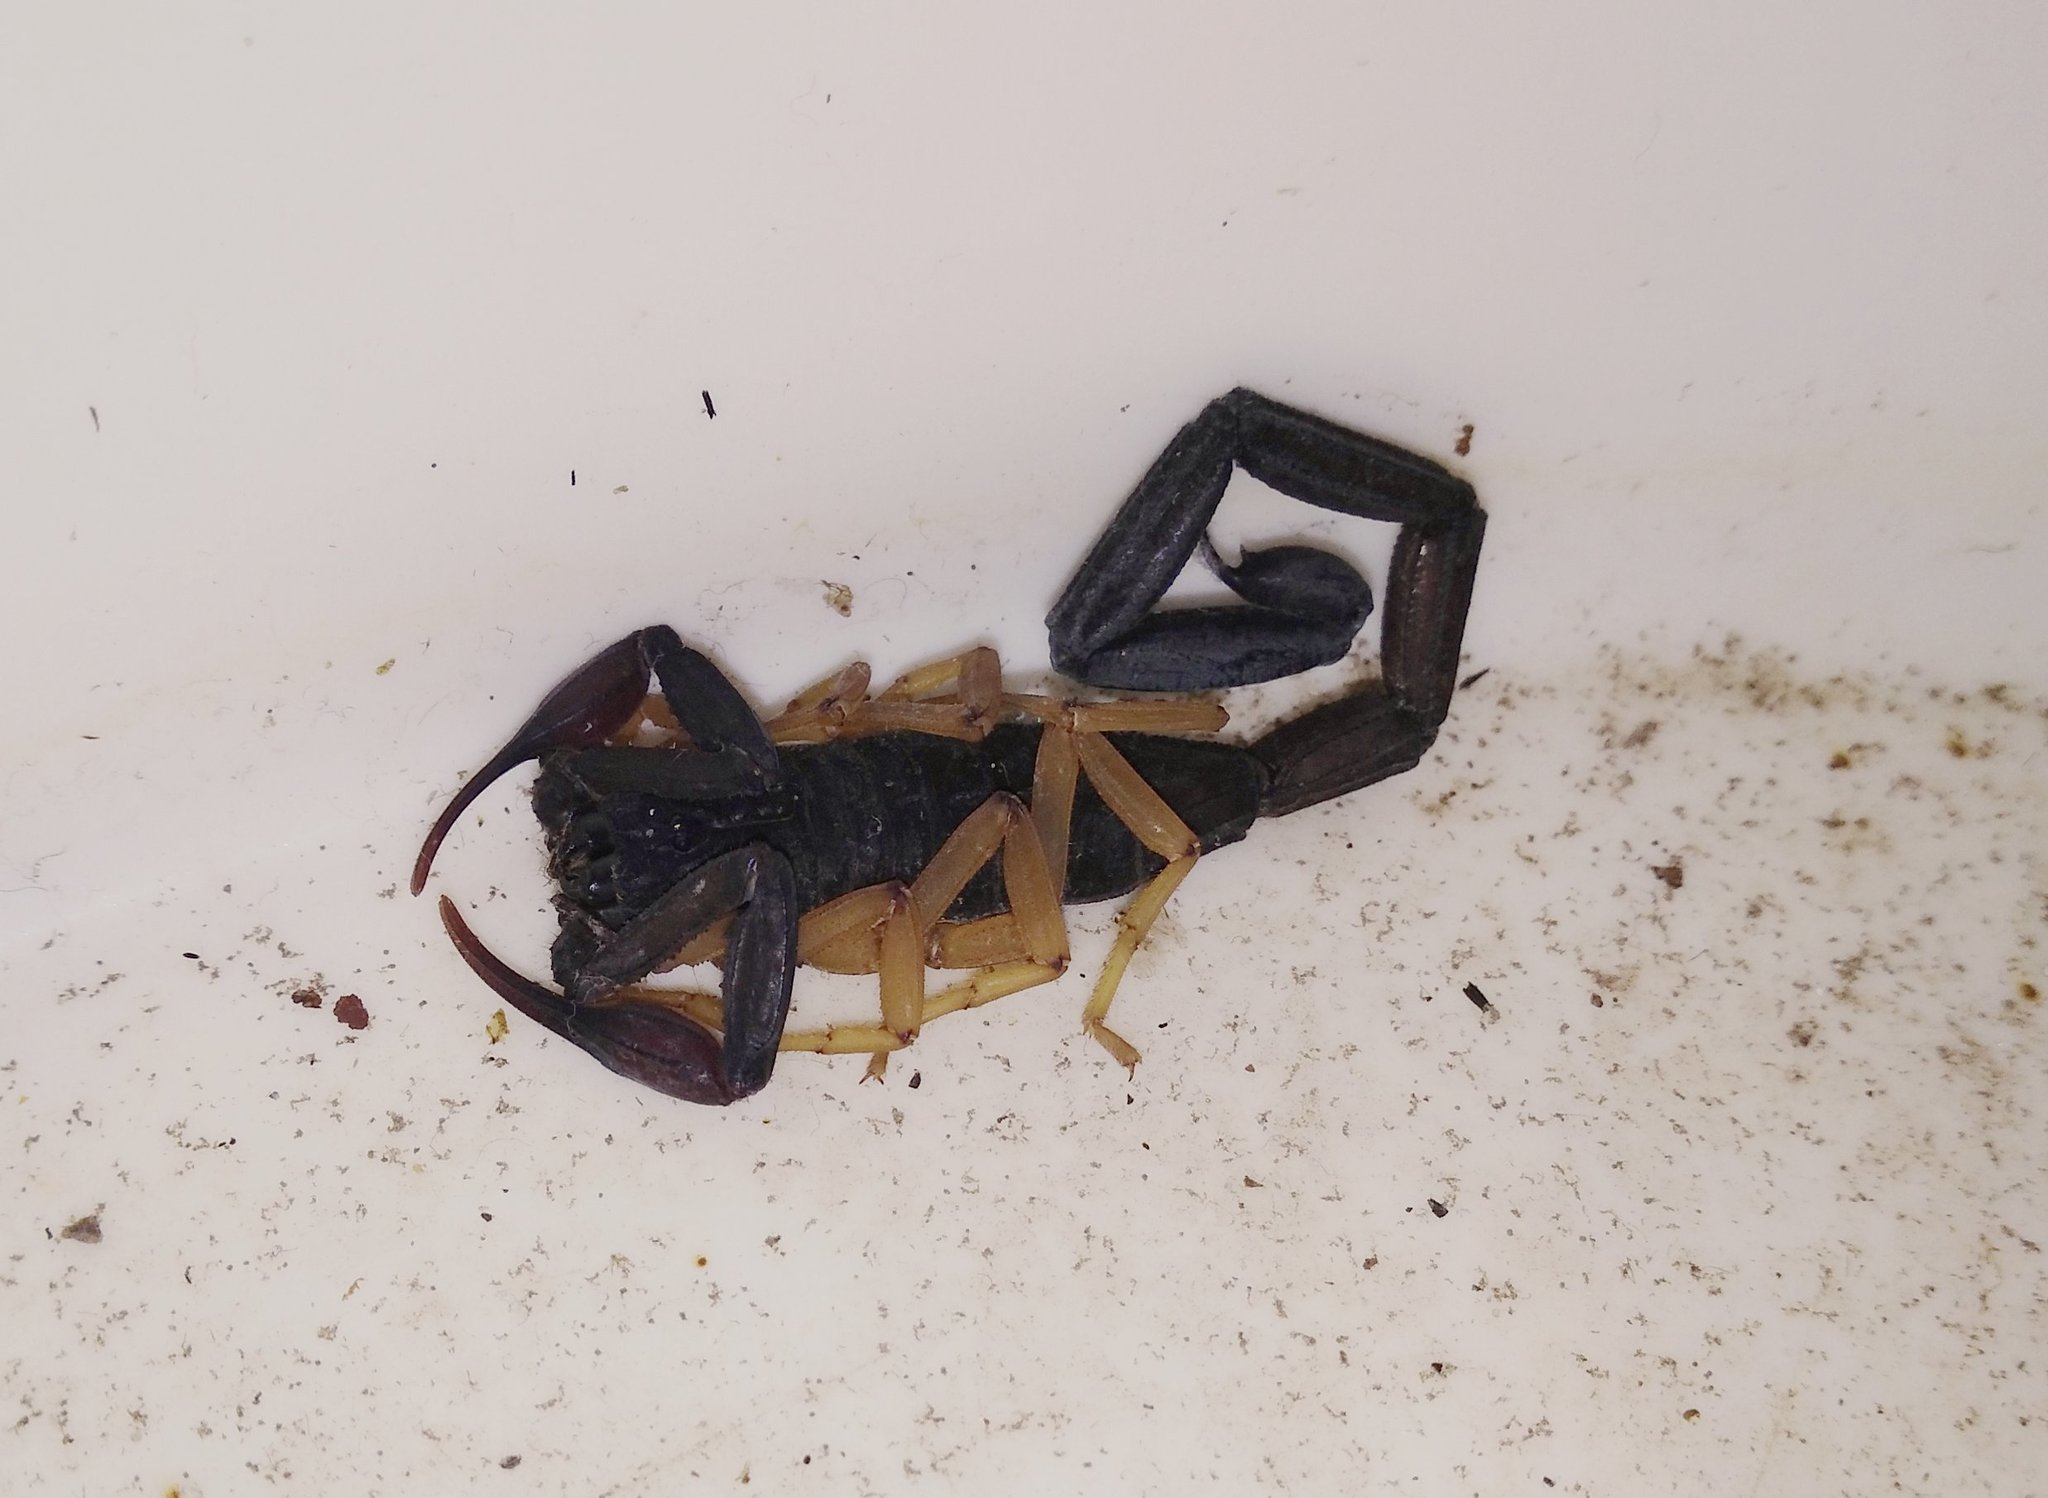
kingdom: Animalia
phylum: Arthropoda
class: Arachnida
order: Scorpiones
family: Buthidae
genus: Centruroides
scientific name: Centruroides gracilis
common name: Scorpions
